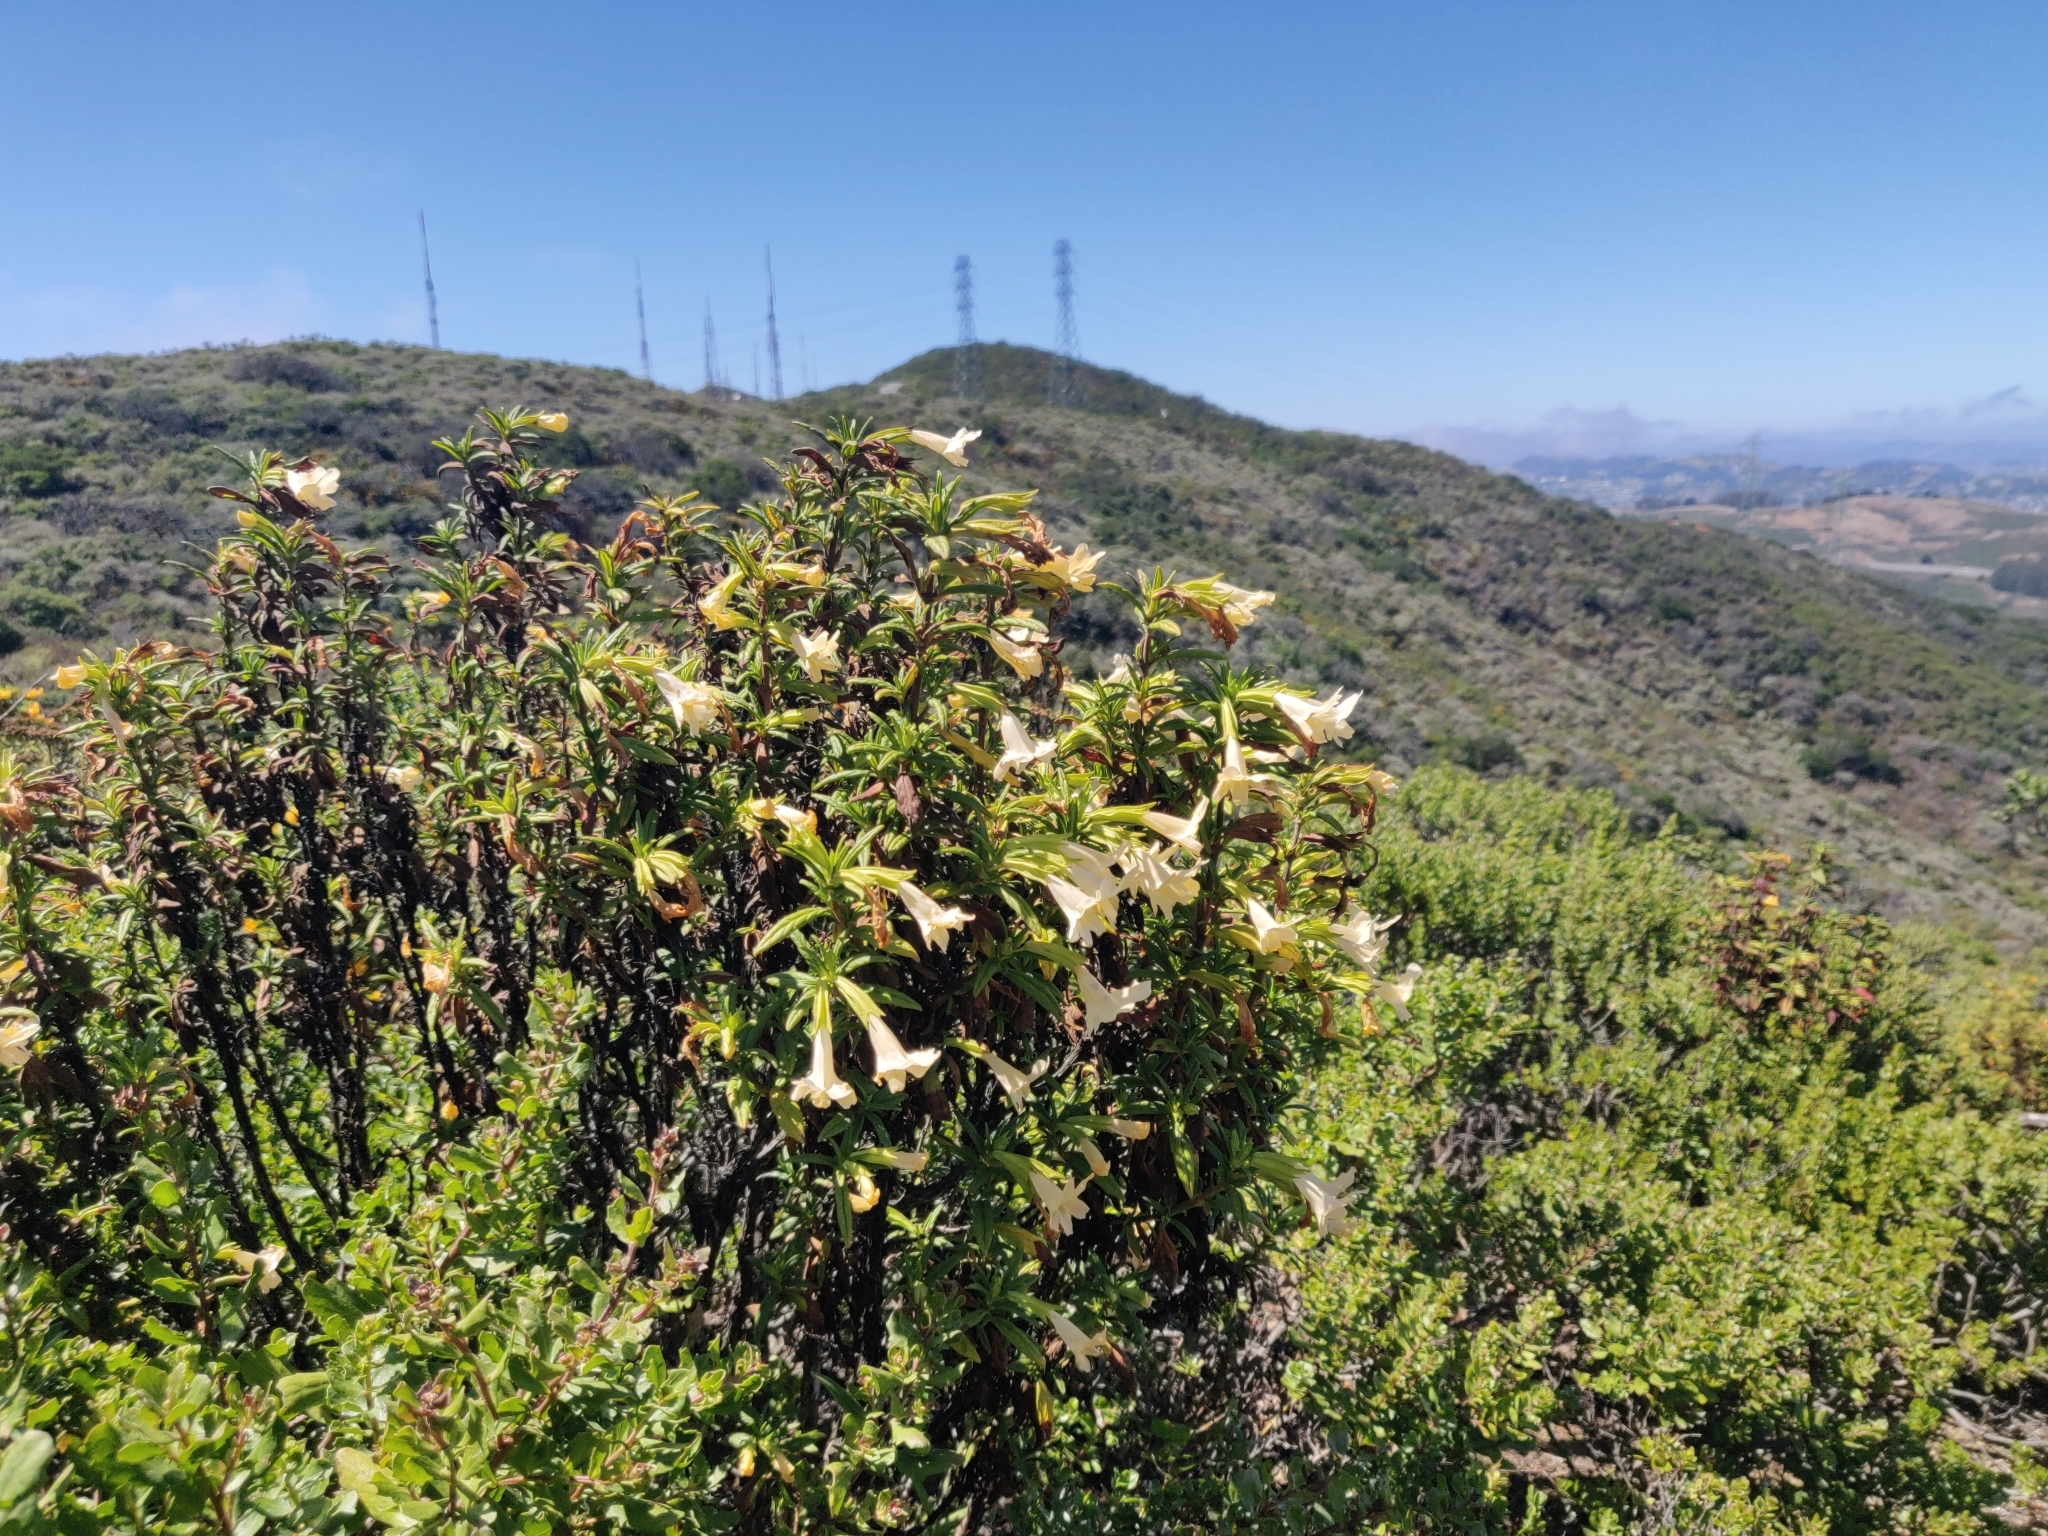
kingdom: Plantae
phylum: Tracheophyta
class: Magnoliopsida
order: Lamiales
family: Phrymaceae
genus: Diplacus
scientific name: Diplacus aurantiacus
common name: Bush monkey-flower
